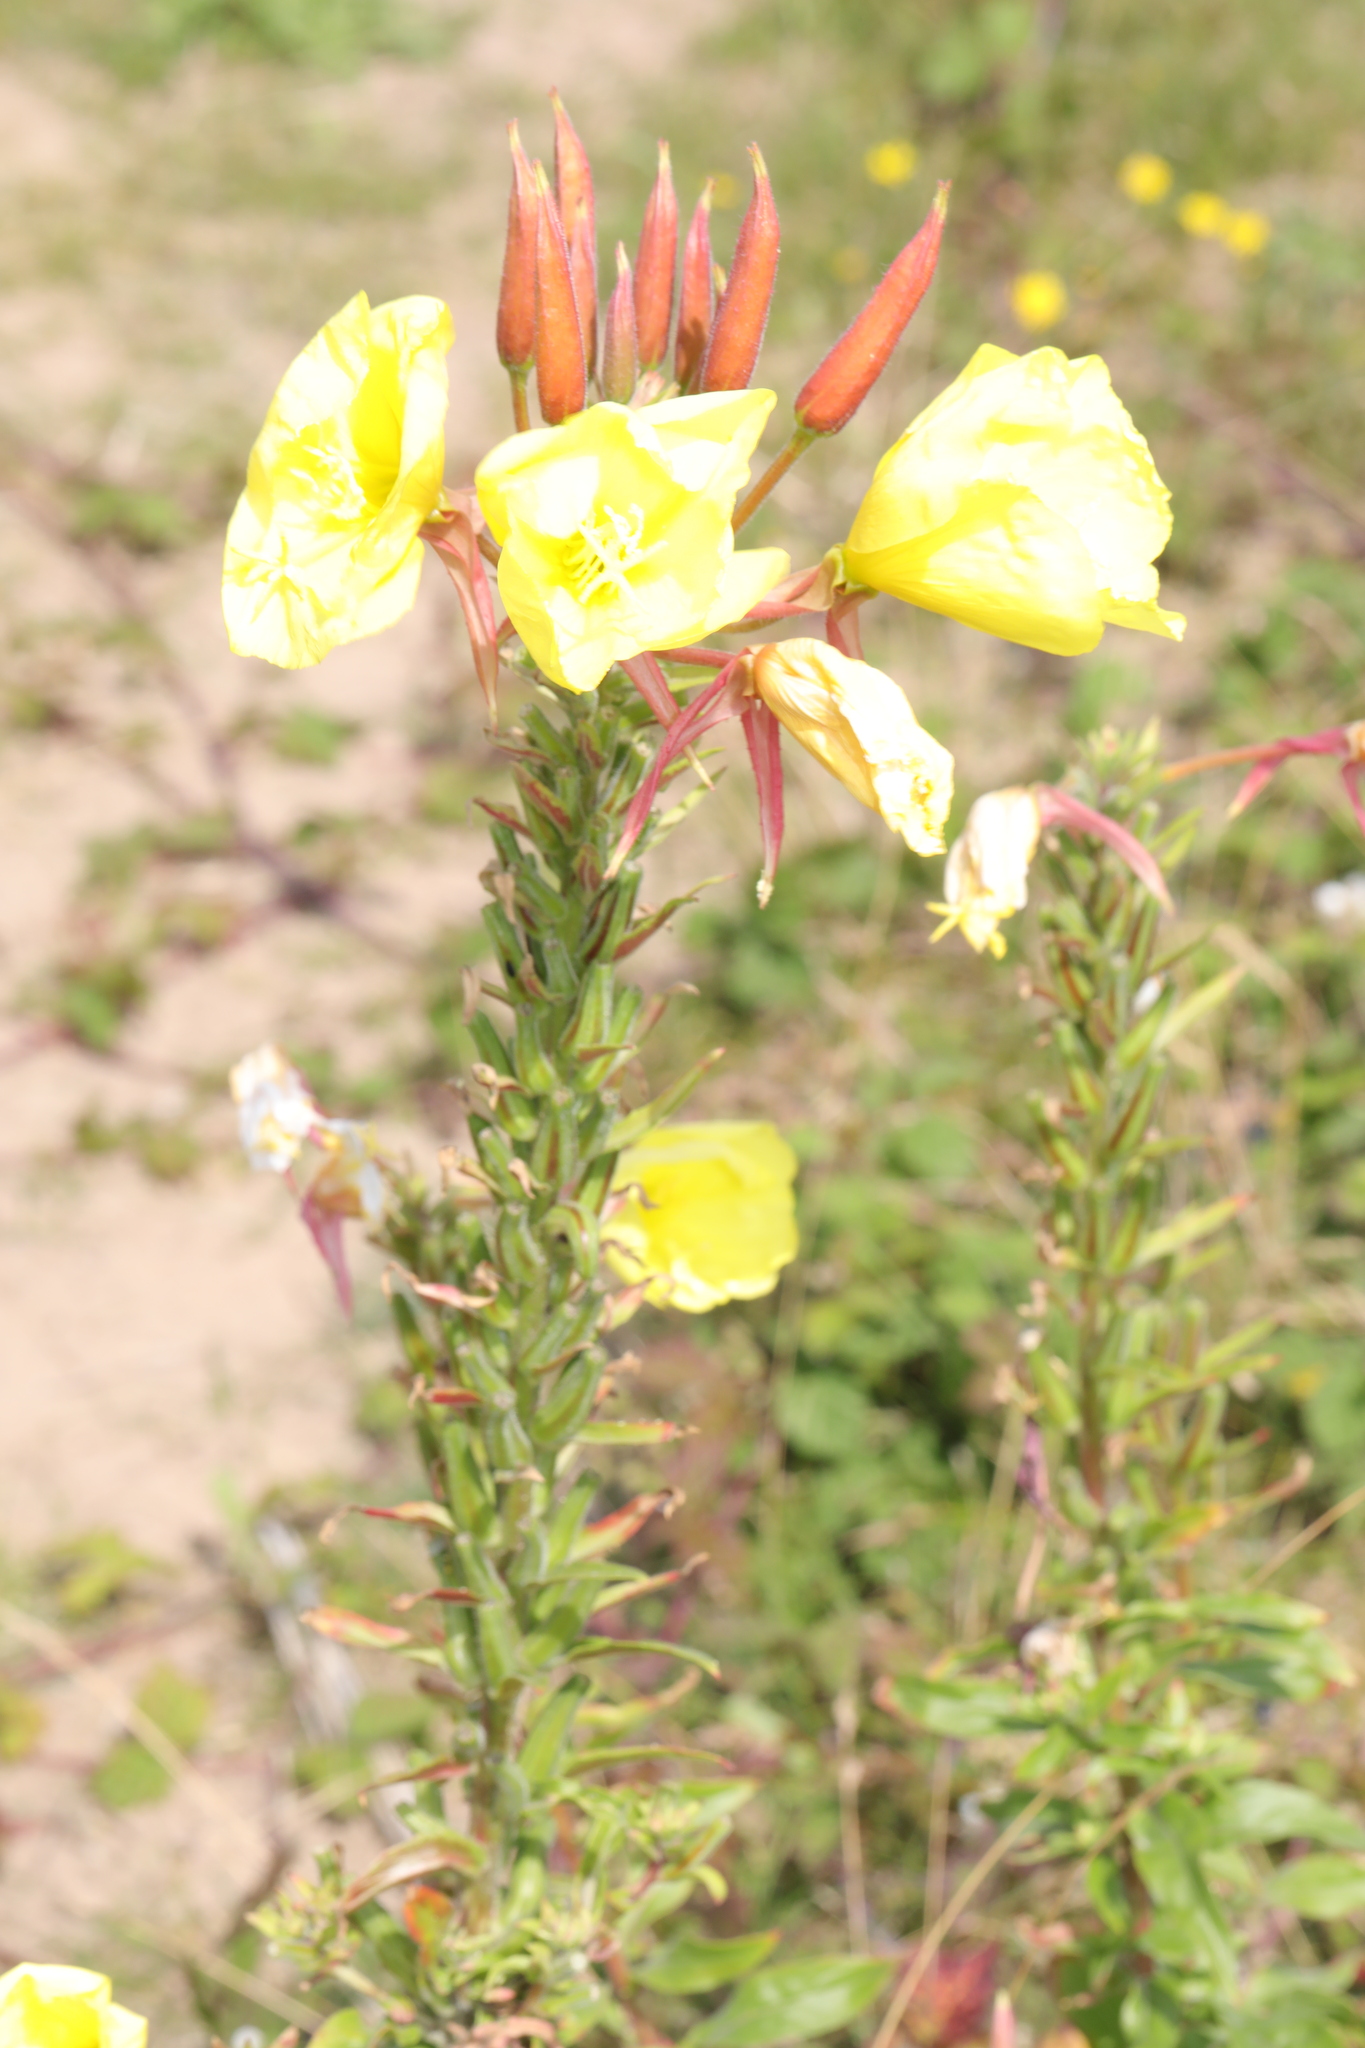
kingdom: Plantae
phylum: Tracheophyta
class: Magnoliopsida
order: Myrtales
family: Onagraceae
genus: Oenothera
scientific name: Oenothera glazioviana
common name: Large-flowered evening-primrose
